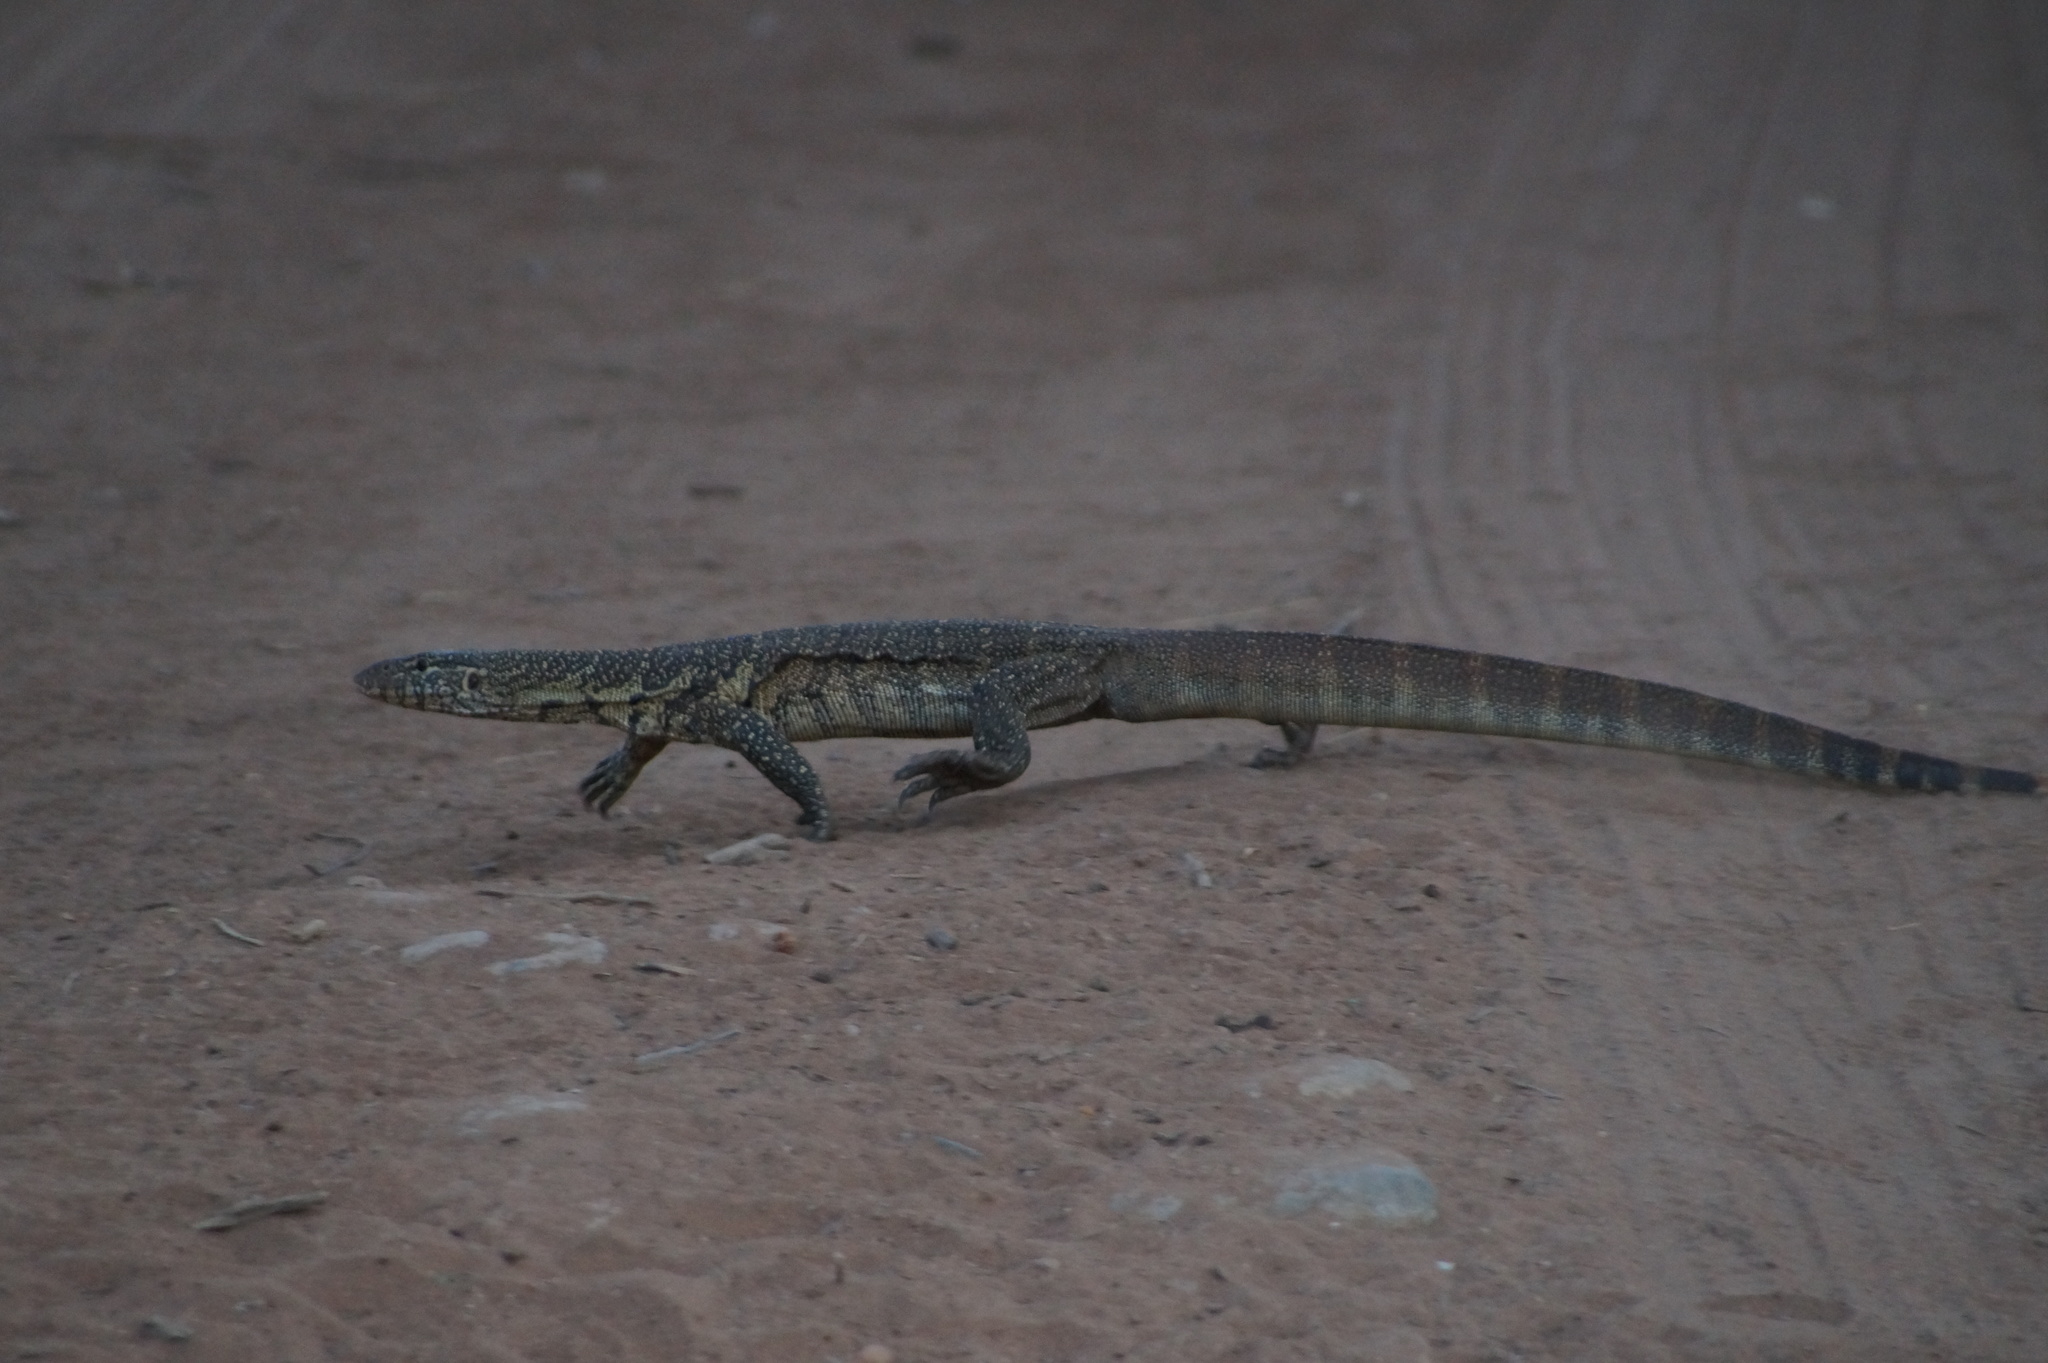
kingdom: Animalia
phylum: Chordata
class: Squamata
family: Varanidae
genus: Varanus
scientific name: Varanus niloticus
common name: Nile monitor
